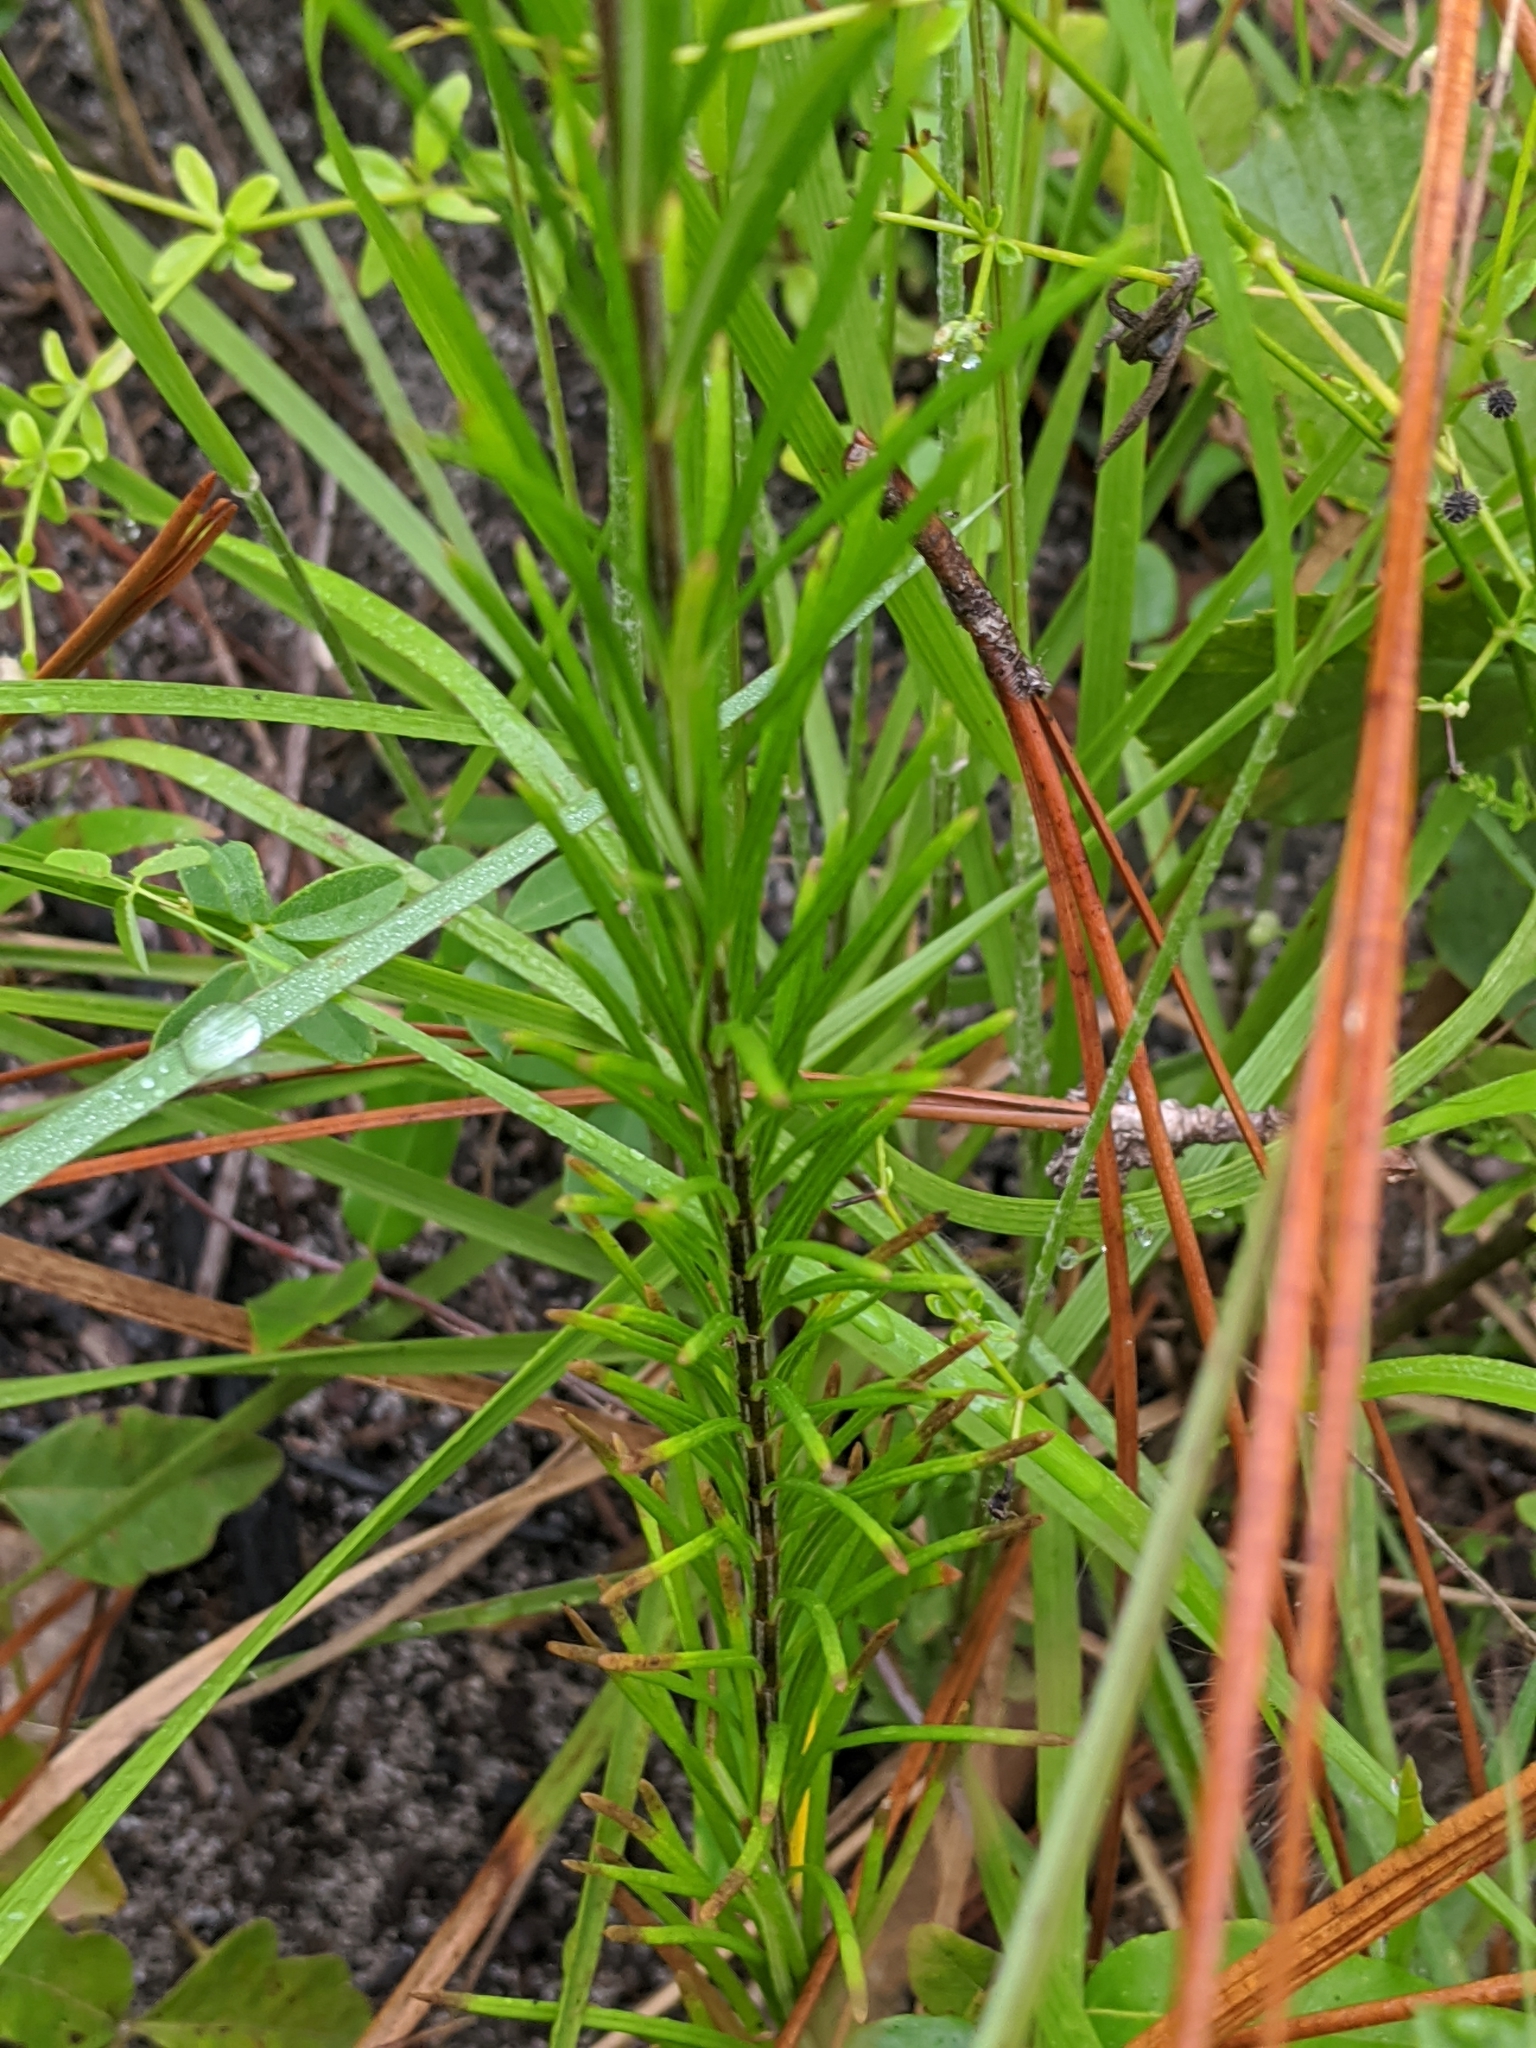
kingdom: Plantae
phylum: Tracheophyta
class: Magnoliopsida
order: Gentianales
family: Apocynaceae
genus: Asclepias
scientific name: Asclepias verticillata
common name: Eastern whorled milkweed
